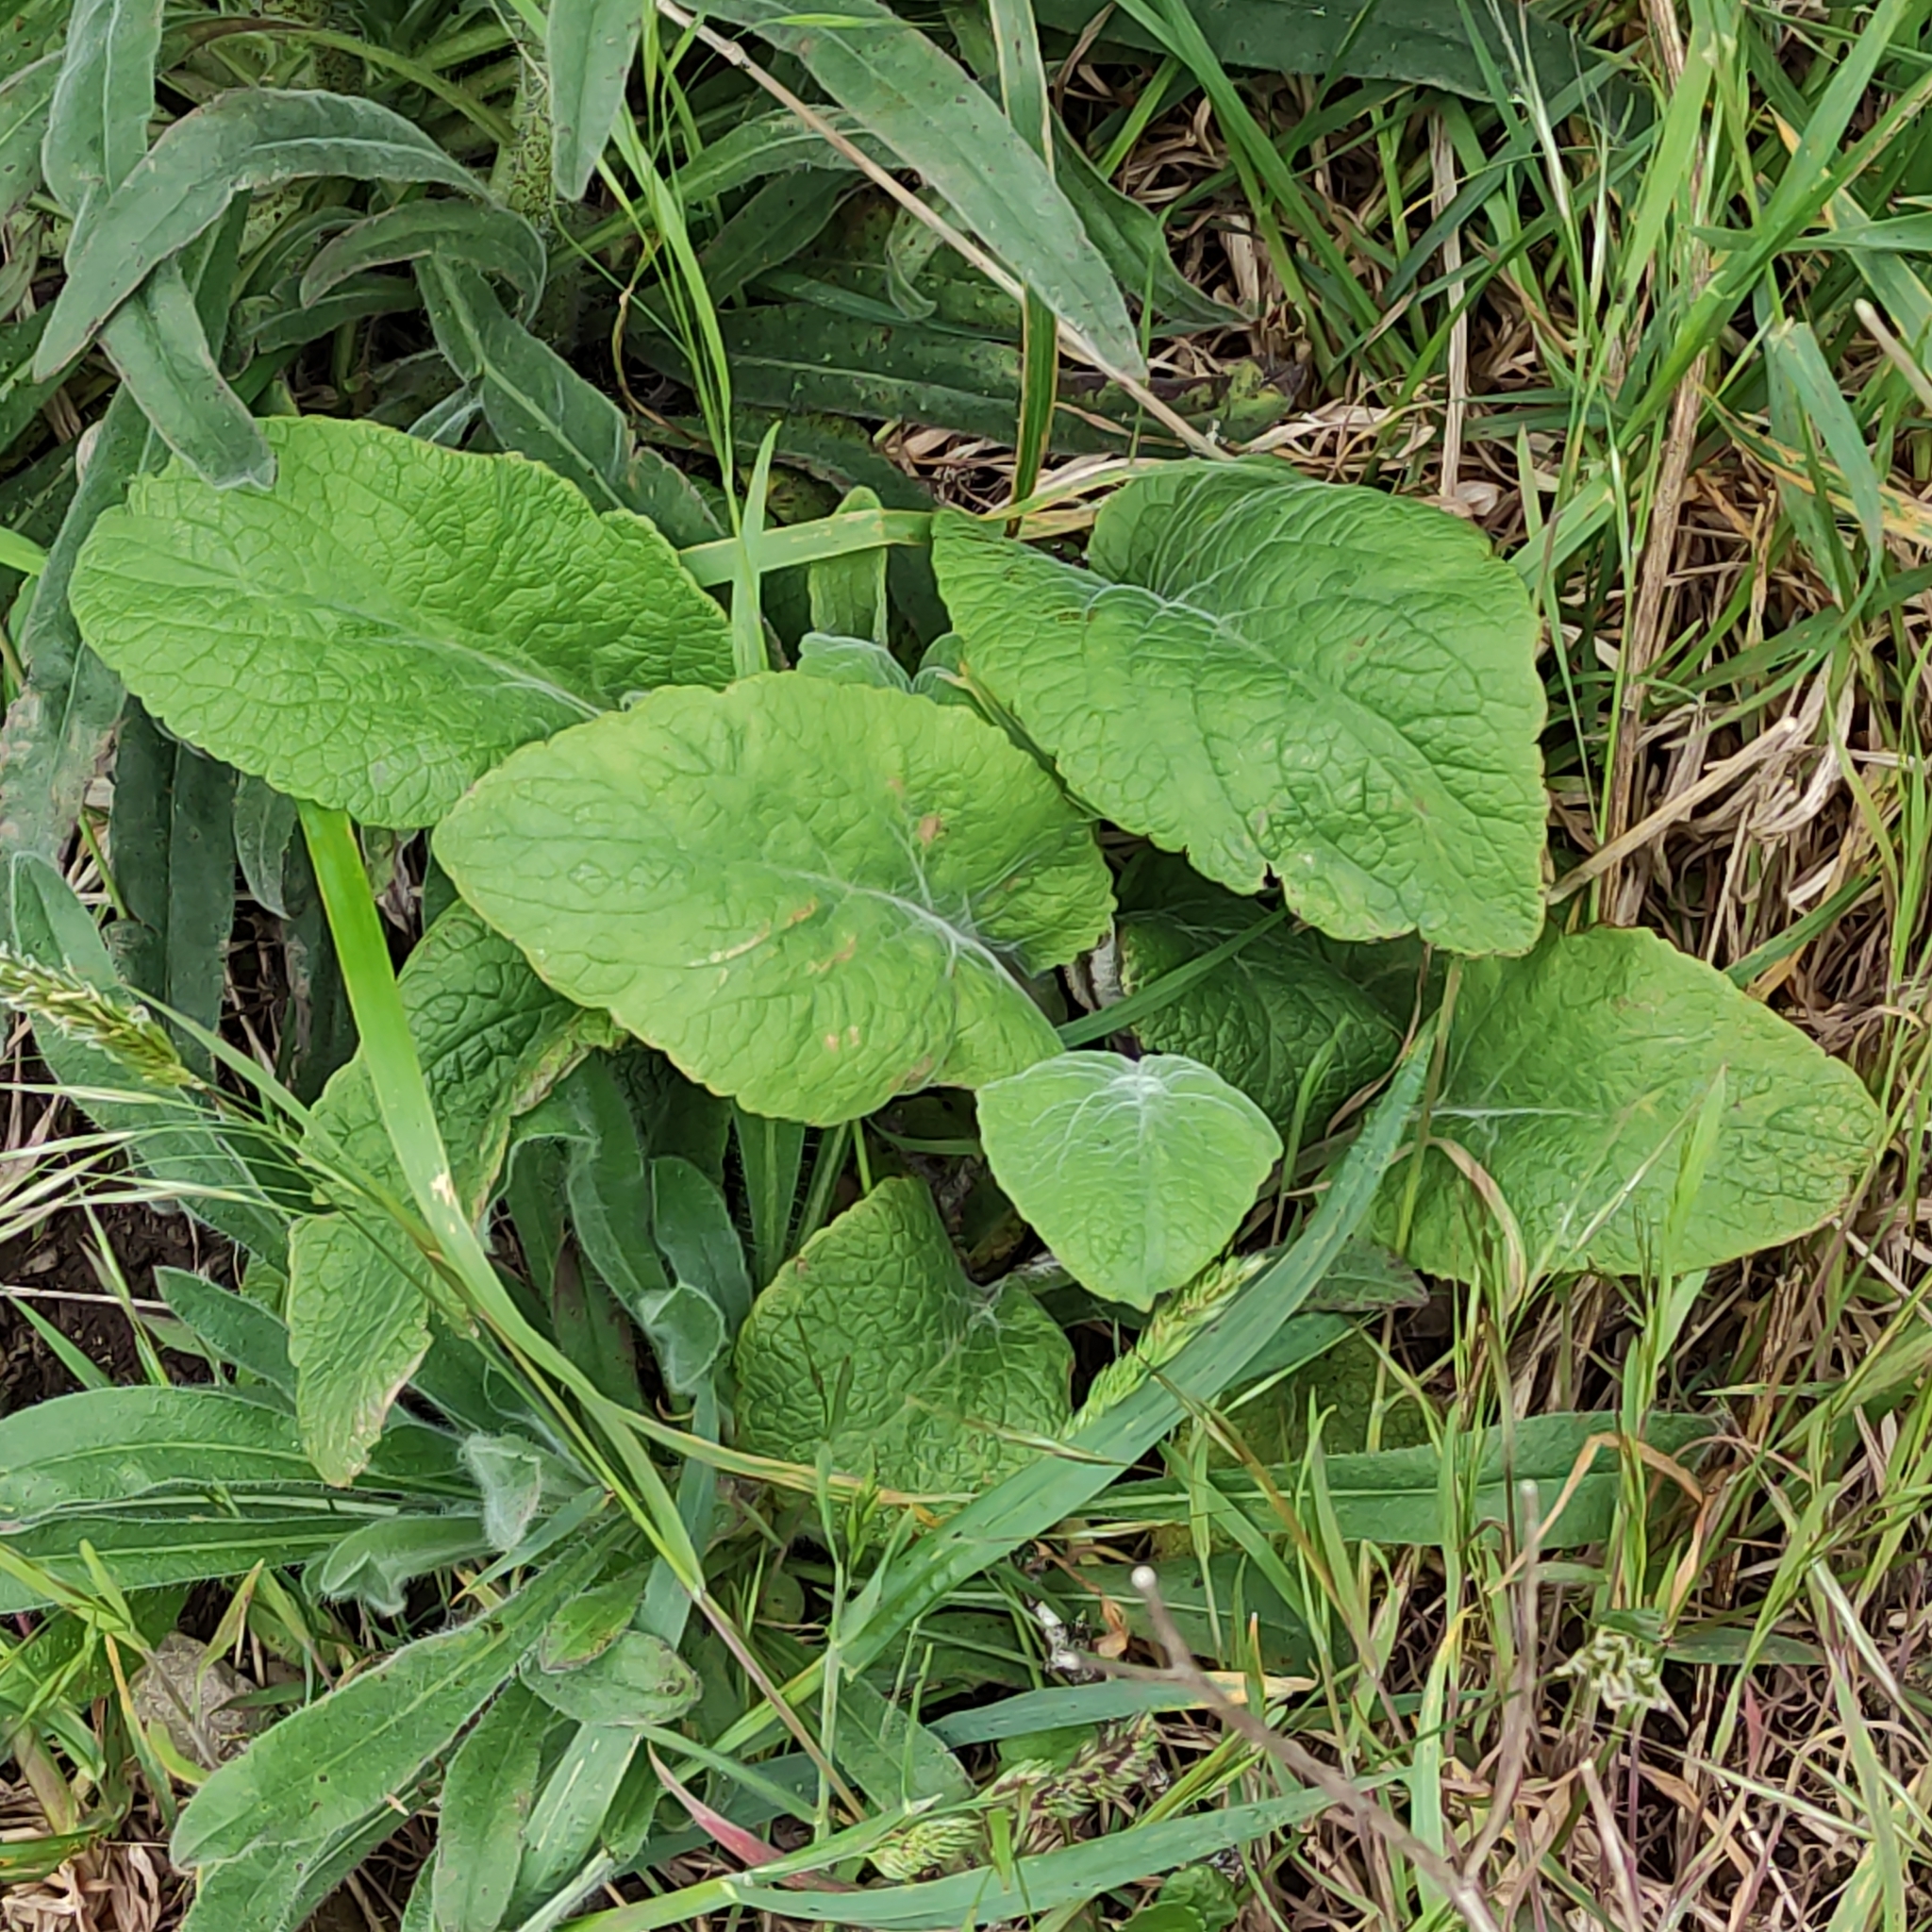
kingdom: Plantae
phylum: Tracheophyta
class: Magnoliopsida
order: Lamiales
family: Plantaginaceae
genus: Digitalis
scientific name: Digitalis purpurea
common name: Foxglove
